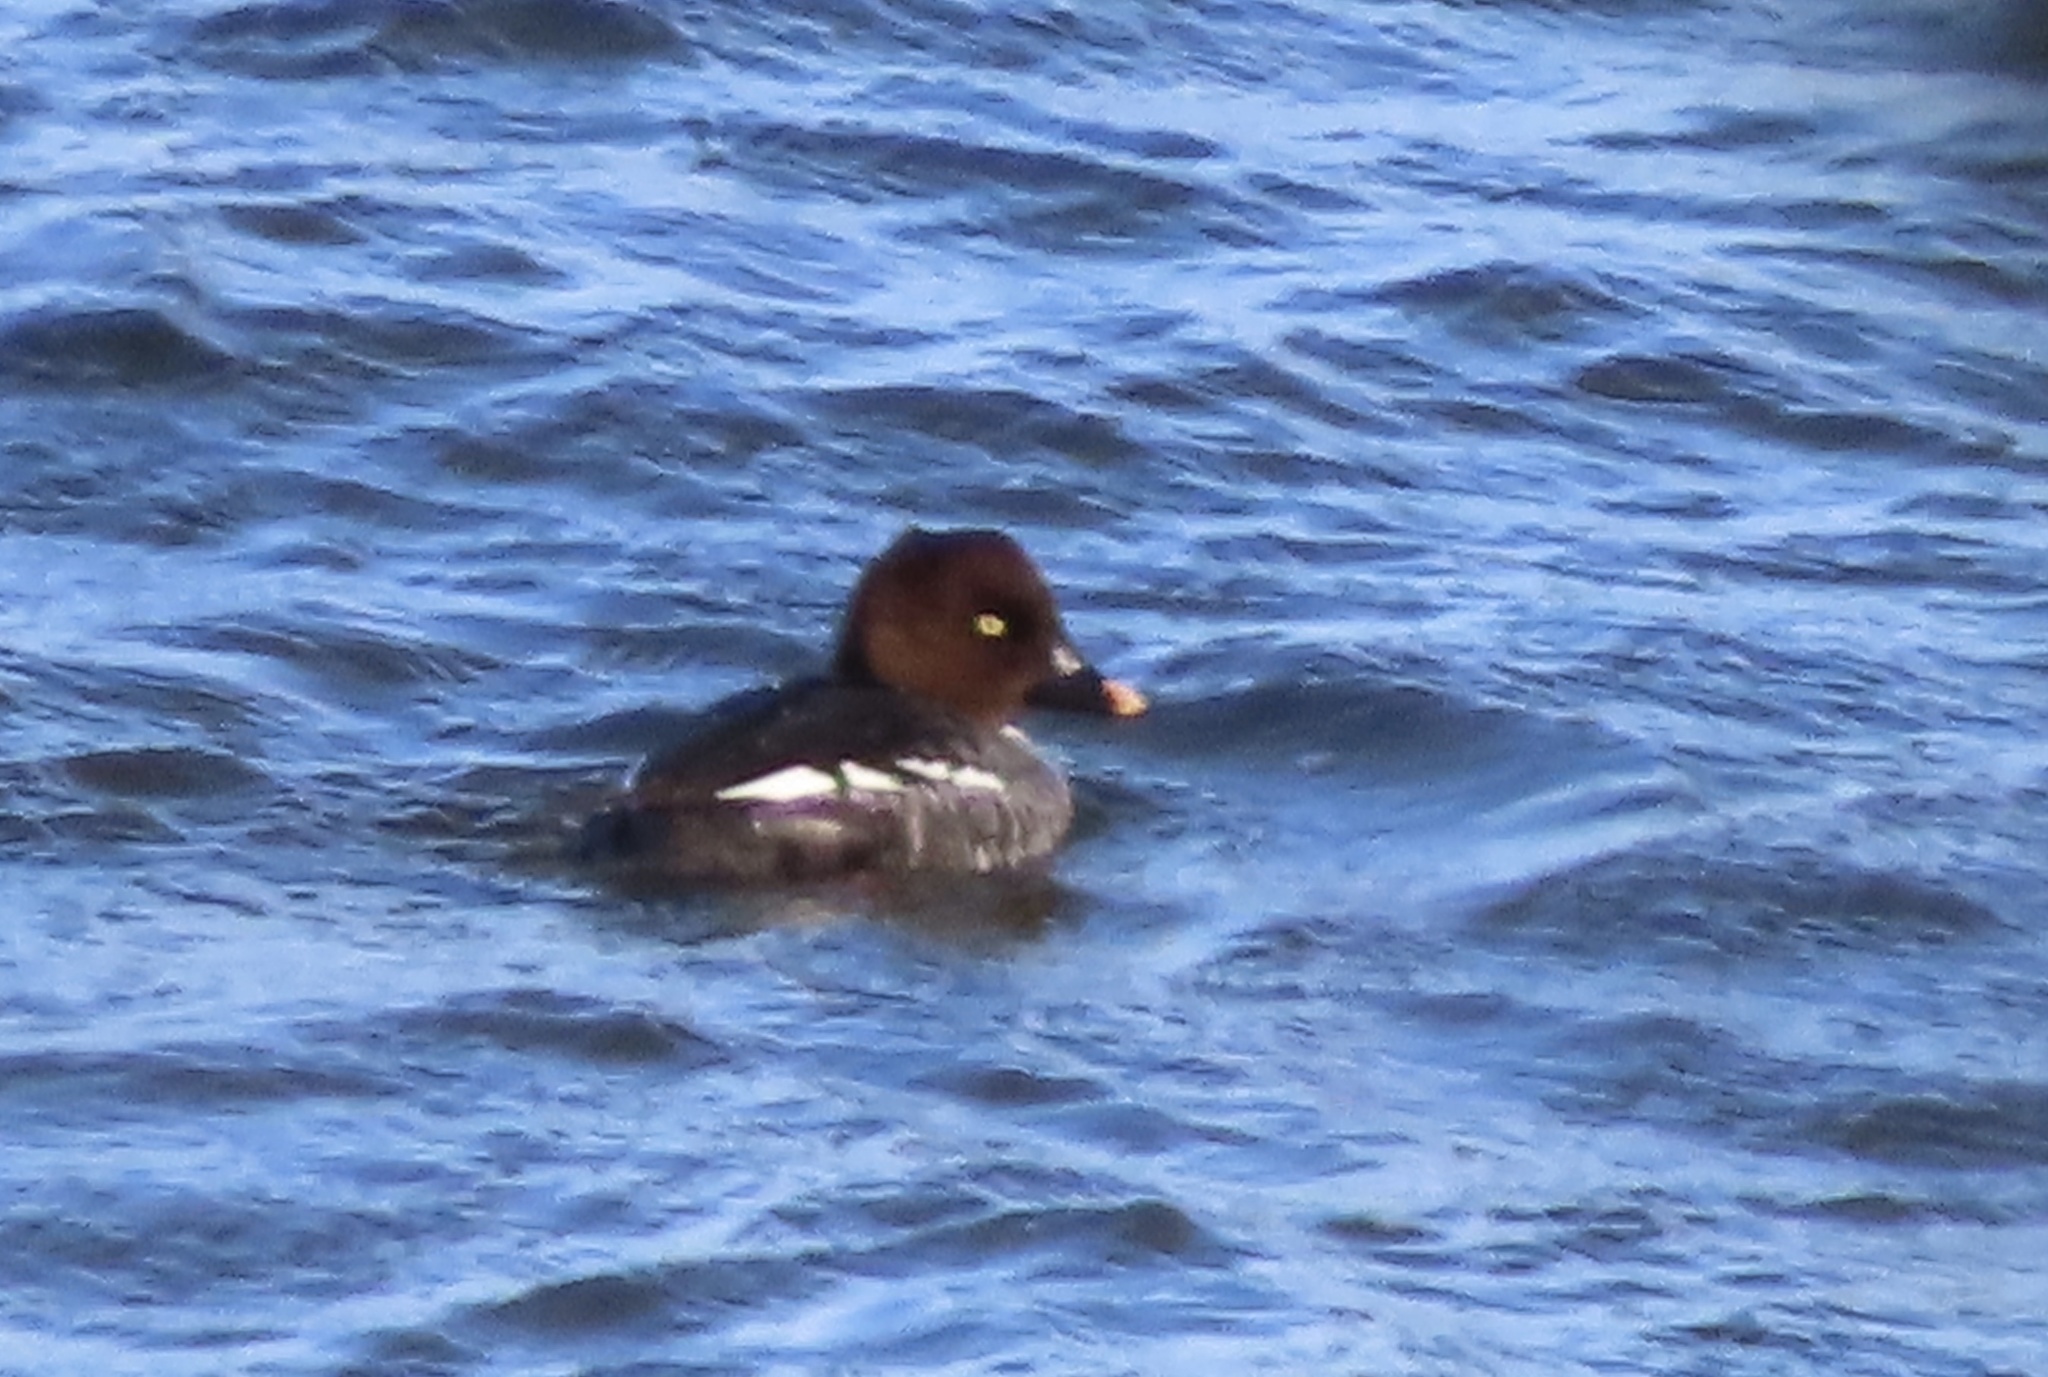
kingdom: Animalia
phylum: Chordata
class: Aves
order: Anseriformes
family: Anatidae
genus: Bucephala
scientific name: Bucephala clangula
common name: Common goldeneye
